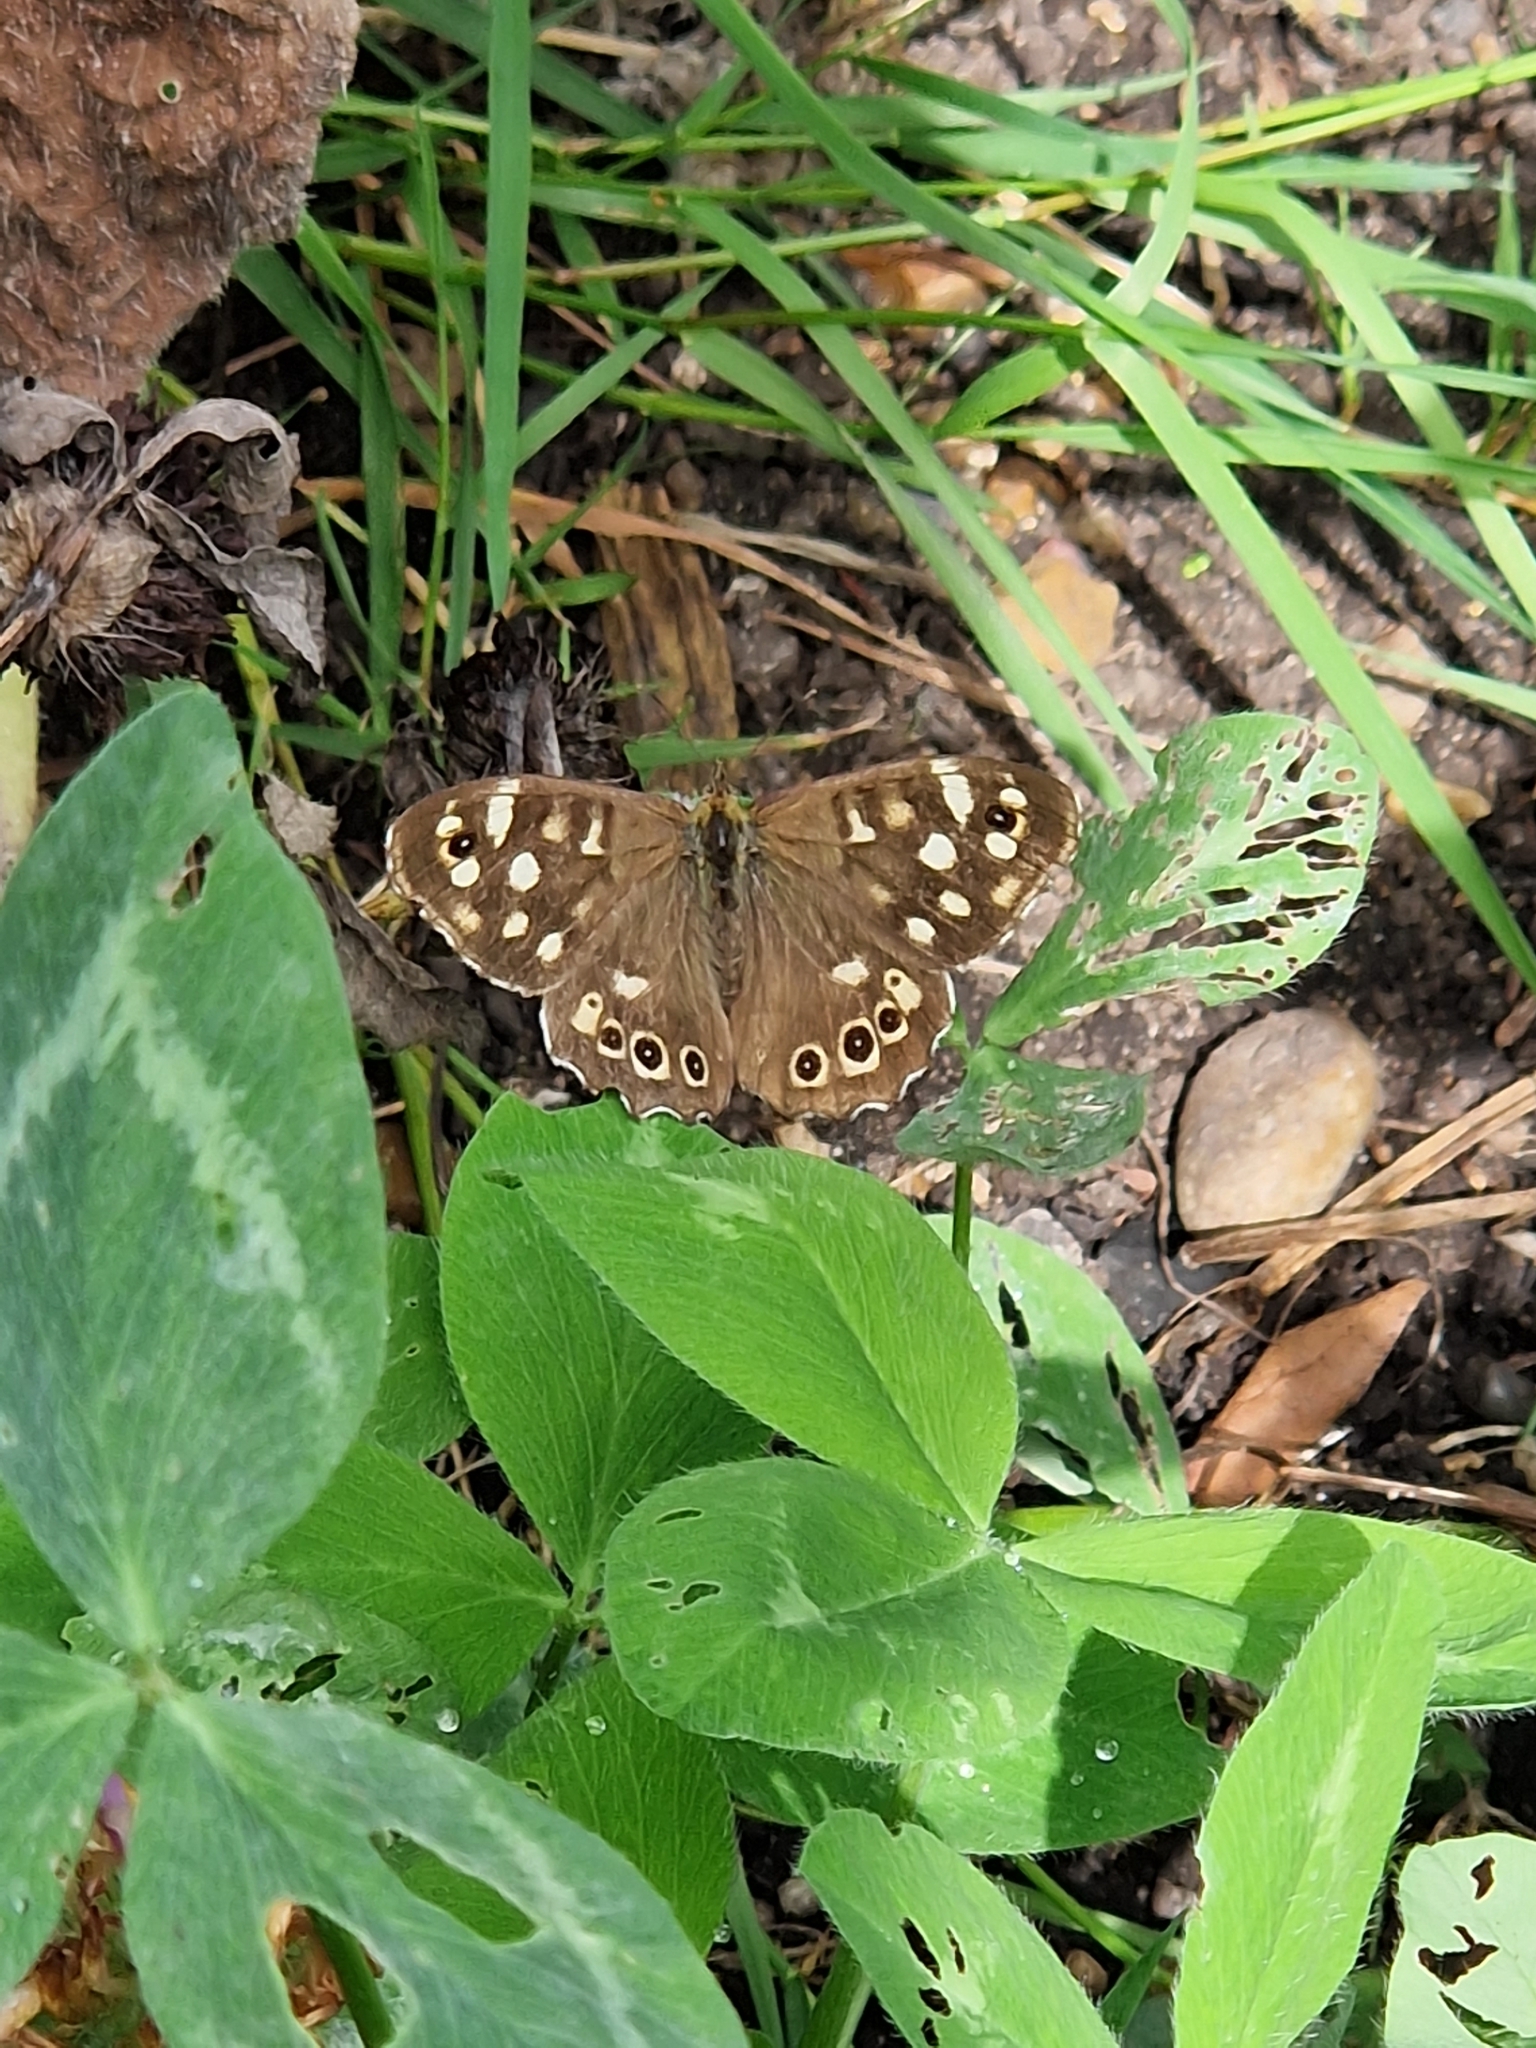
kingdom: Animalia
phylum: Arthropoda
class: Insecta
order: Lepidoptera
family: Nymphalidae
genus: Pararge
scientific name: Pararge aegeria
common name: Speckled wood
